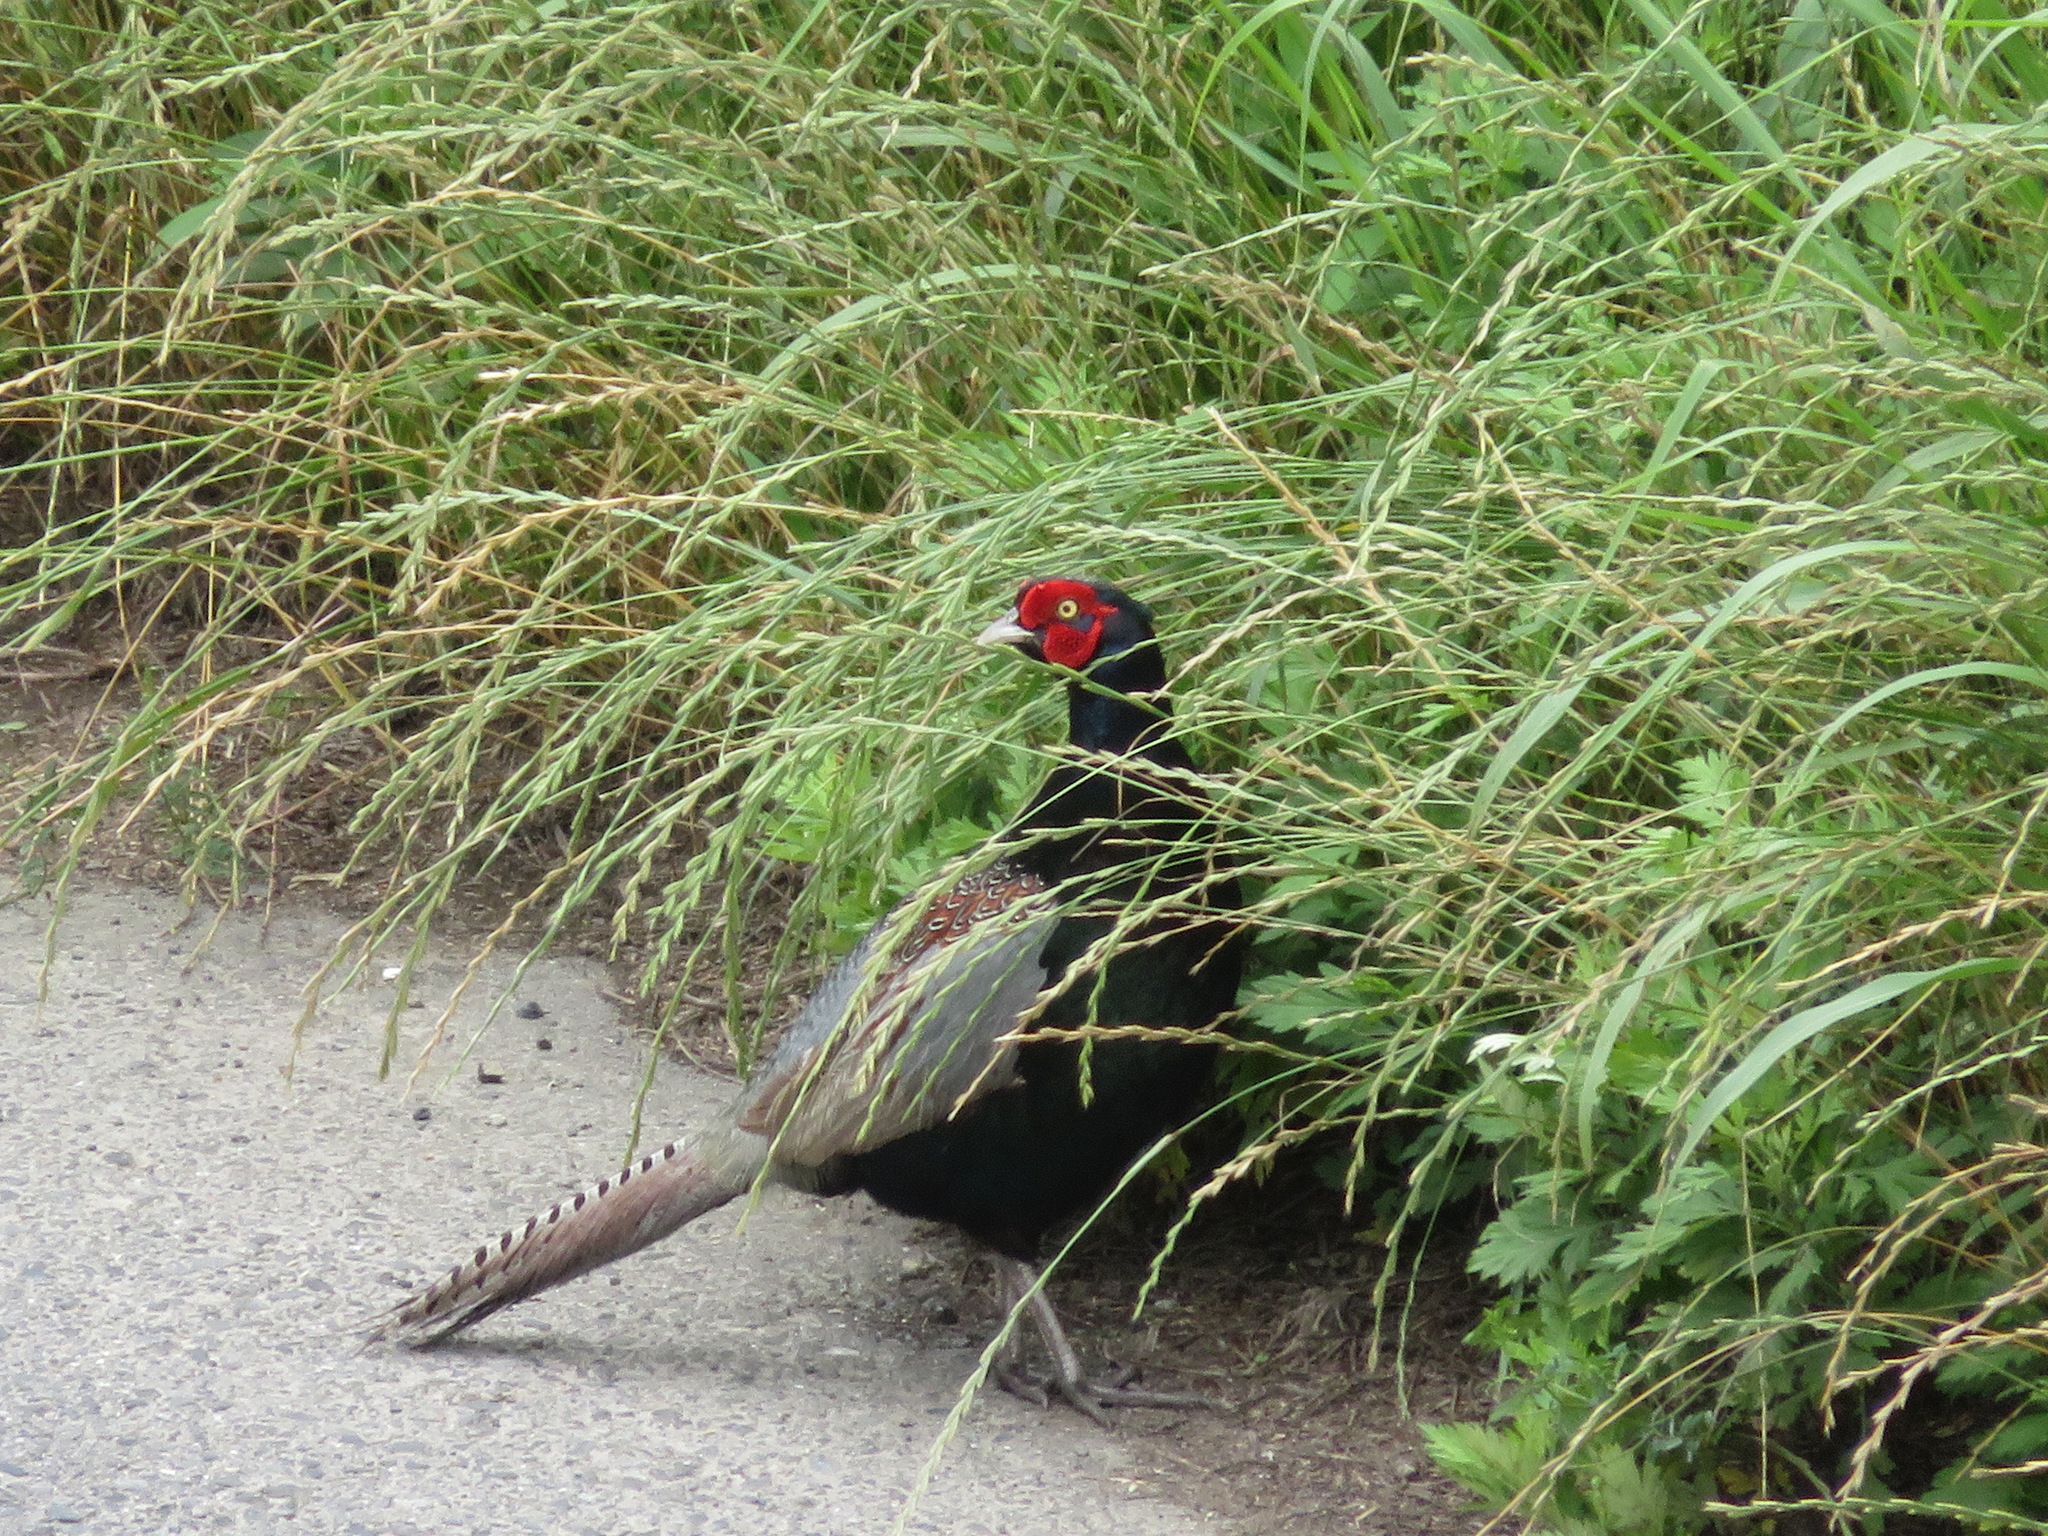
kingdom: Animalia
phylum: Chordata
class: Aves
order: Galliformes
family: Phasianidae
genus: Phasianus
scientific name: Phasianus versicolor
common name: Green pheasant
